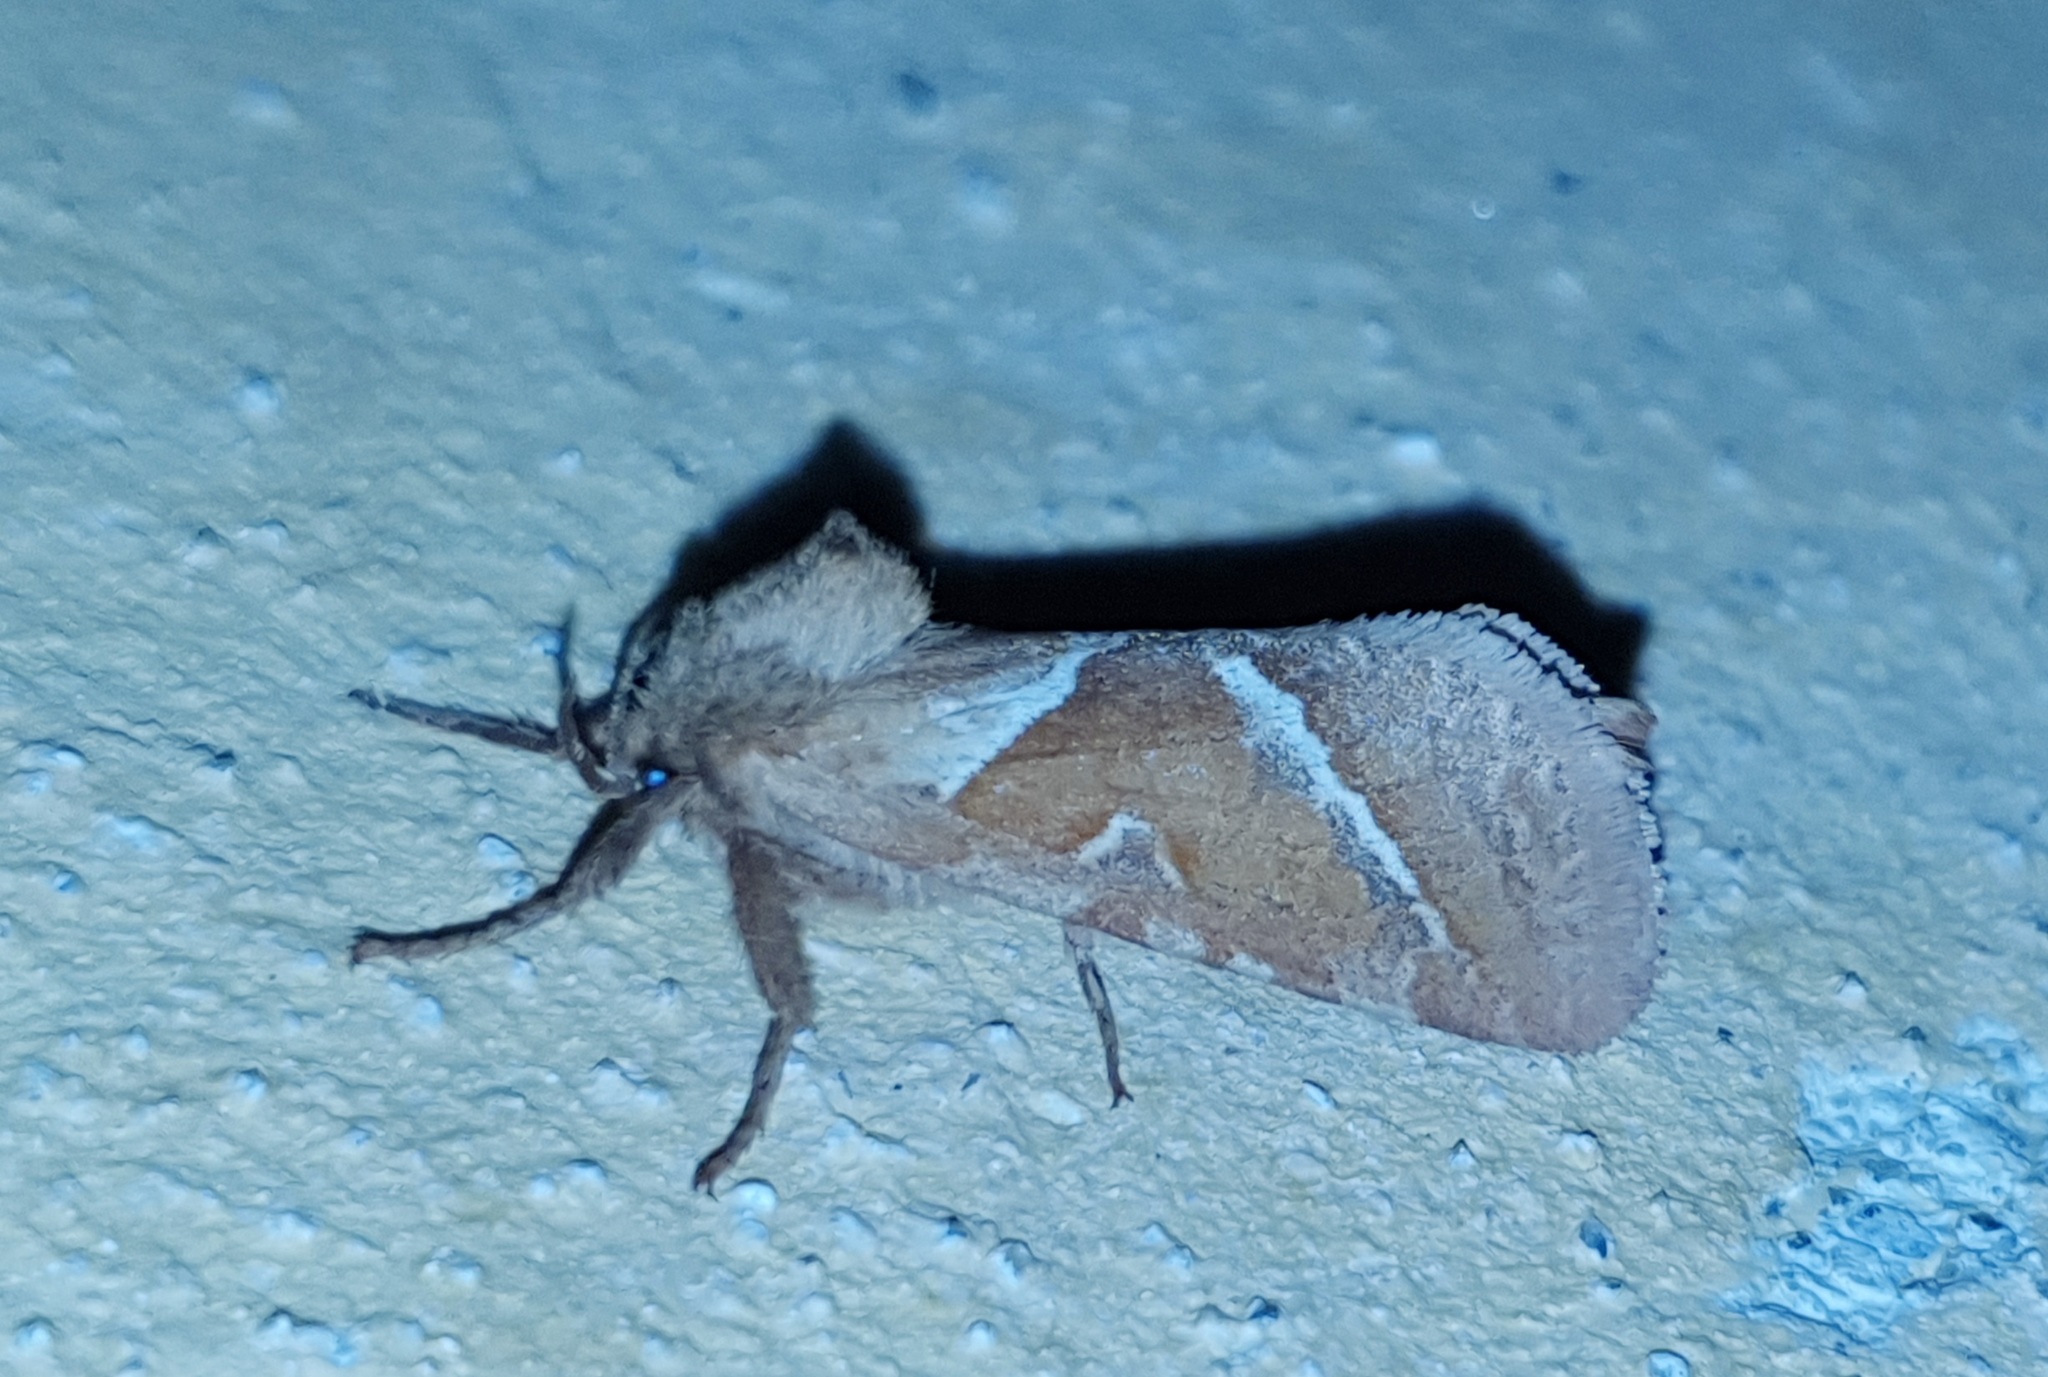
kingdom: Animalia
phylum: Arthropoda
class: Insecta
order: Lepidoptera
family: Hepialidae
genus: Triodia
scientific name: Triodia sylvina
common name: Orange swift
